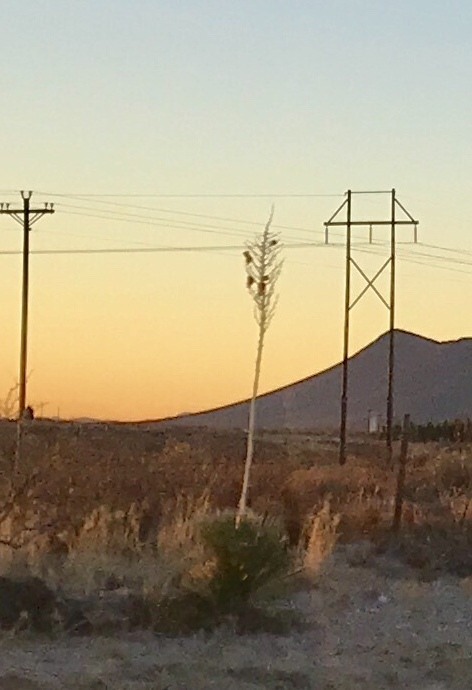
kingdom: Plantae
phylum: Tracheophyta
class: Liliopsida
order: Asparagales
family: Asparagaceae
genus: Yucca
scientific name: Yucca elata
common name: Palmella
